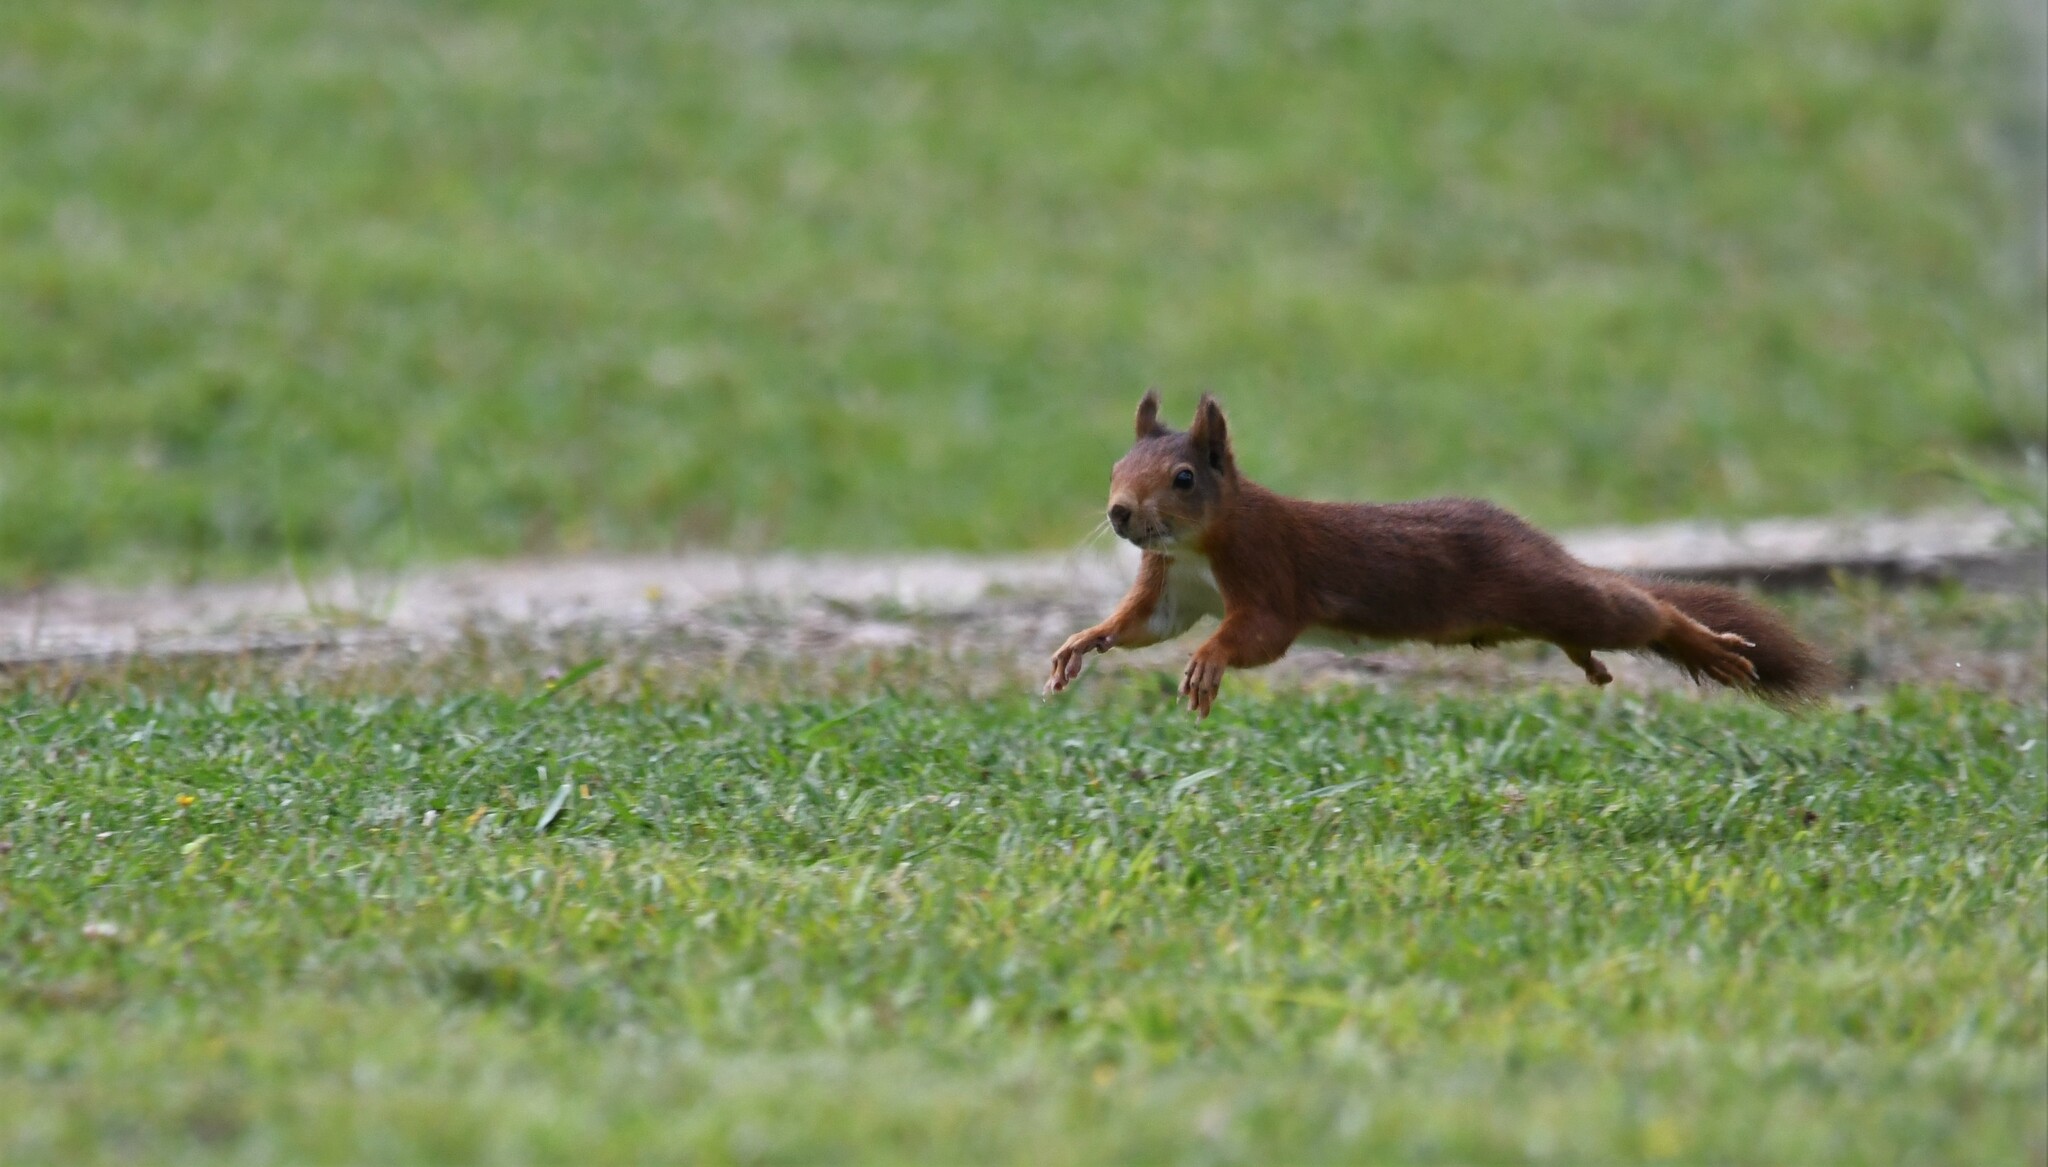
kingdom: Animalia
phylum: Chordata
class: Mammalia
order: Rodentia
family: Sciuridae
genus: Sciurus
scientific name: Sciurus vulgaris
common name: Eurasian red squirrel
